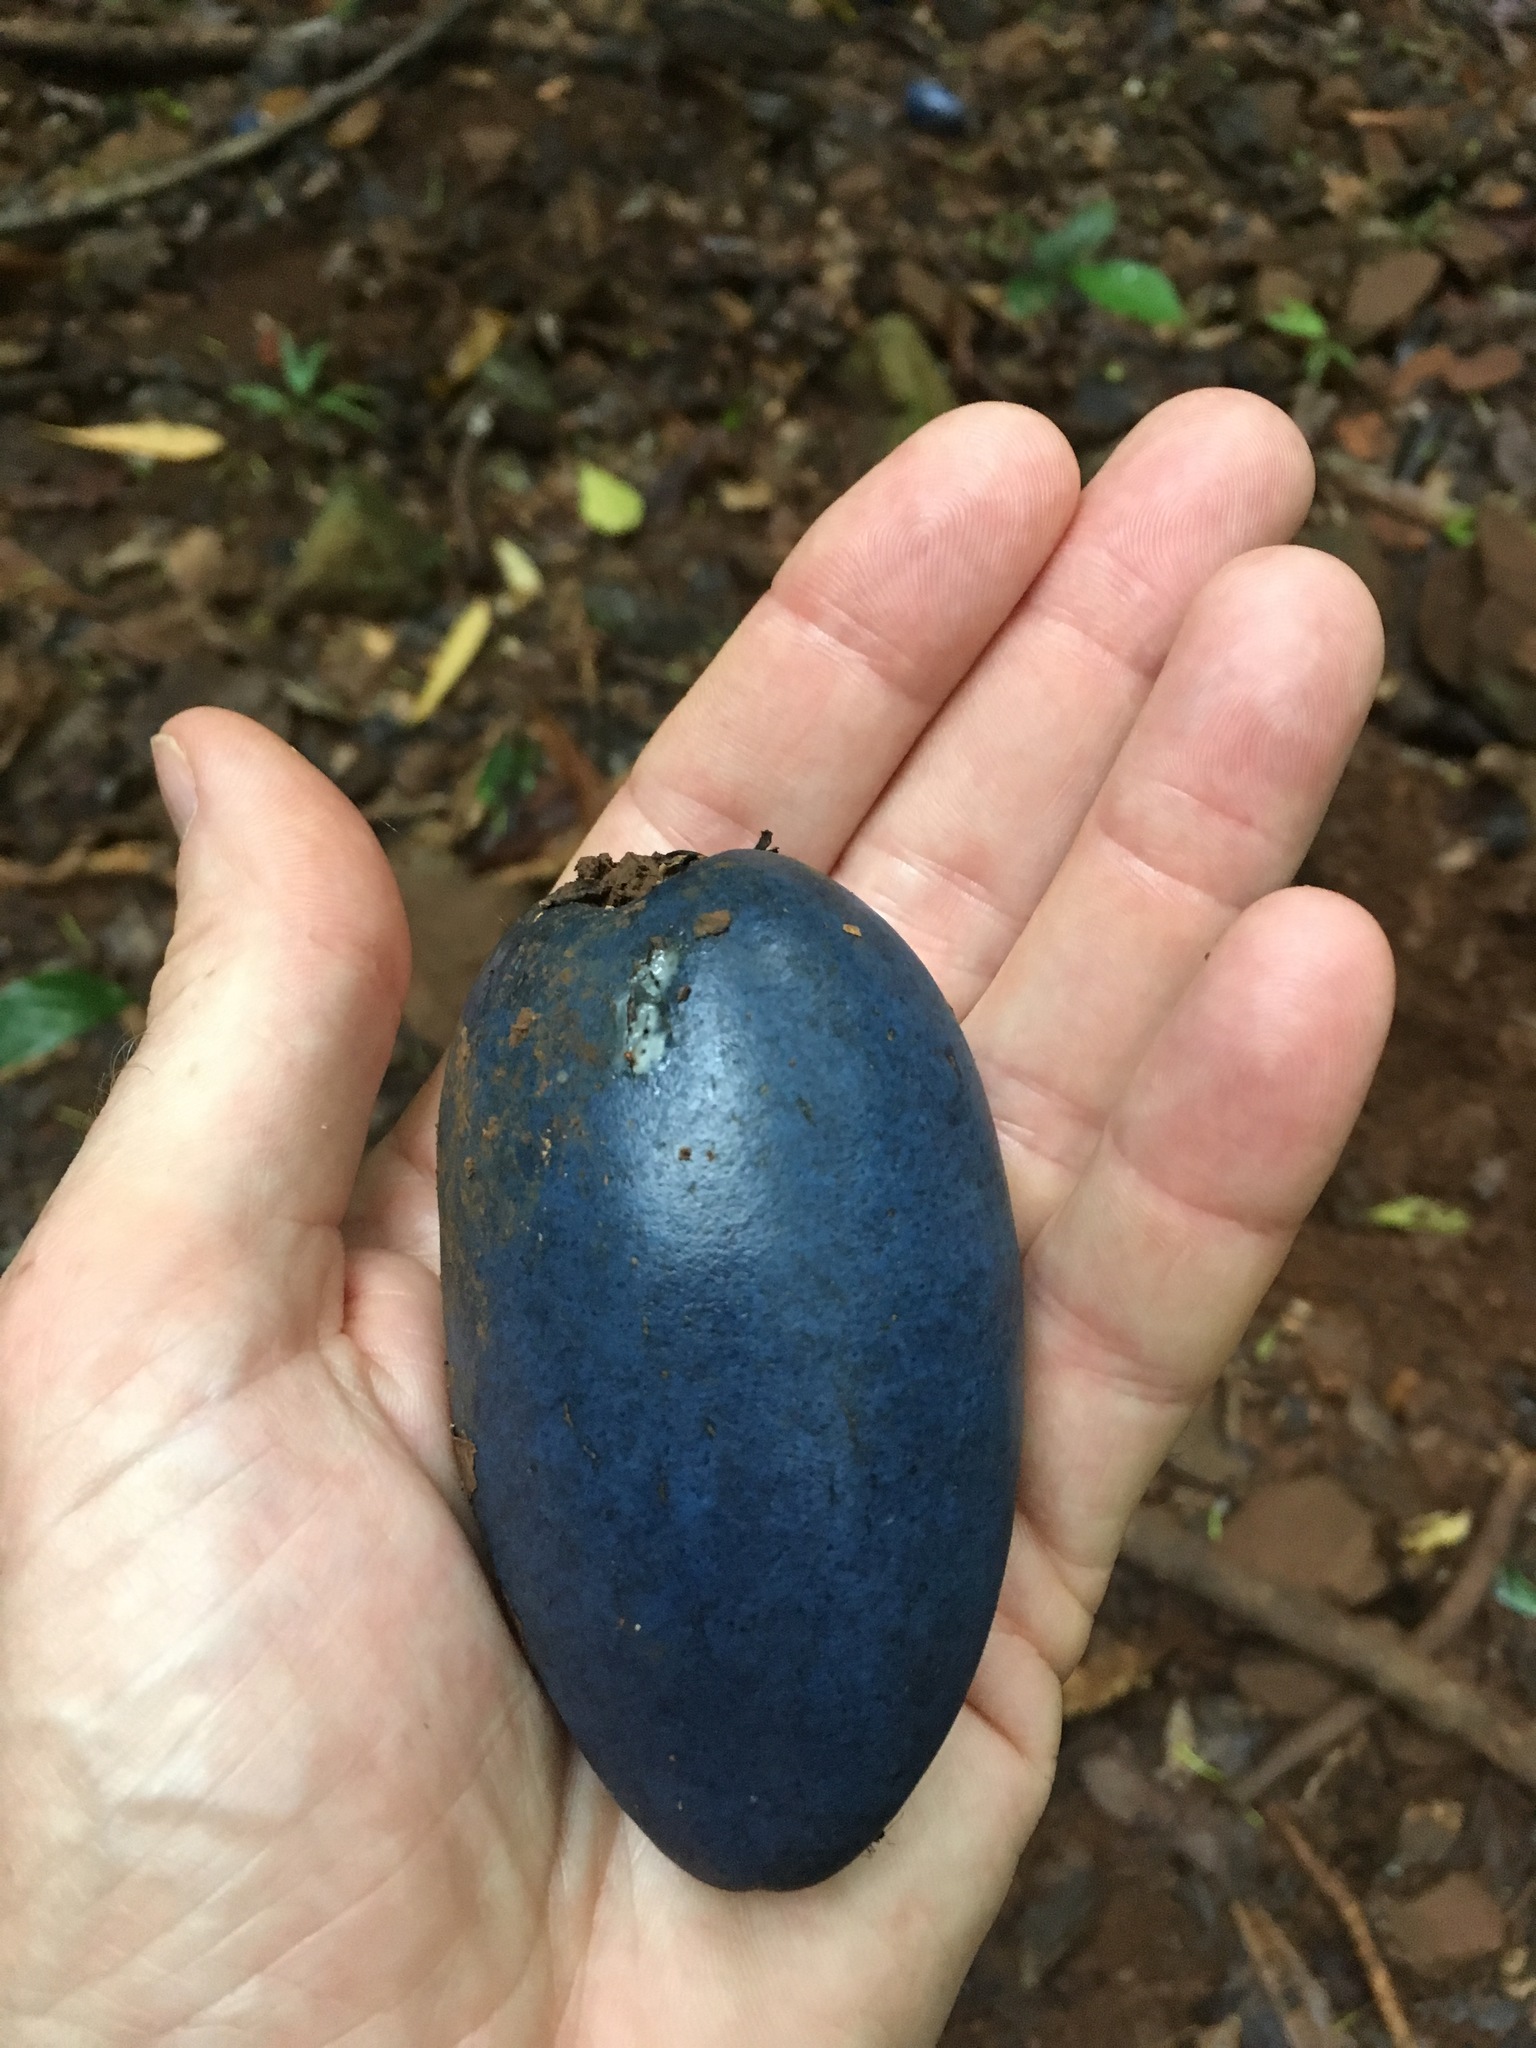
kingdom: Plantae
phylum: Tracheophyta
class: Magnoliopsida
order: Gentianales
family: Apocynaceae
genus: Cerbera
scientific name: Cerbera floribunda
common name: Cassowary plumtree
